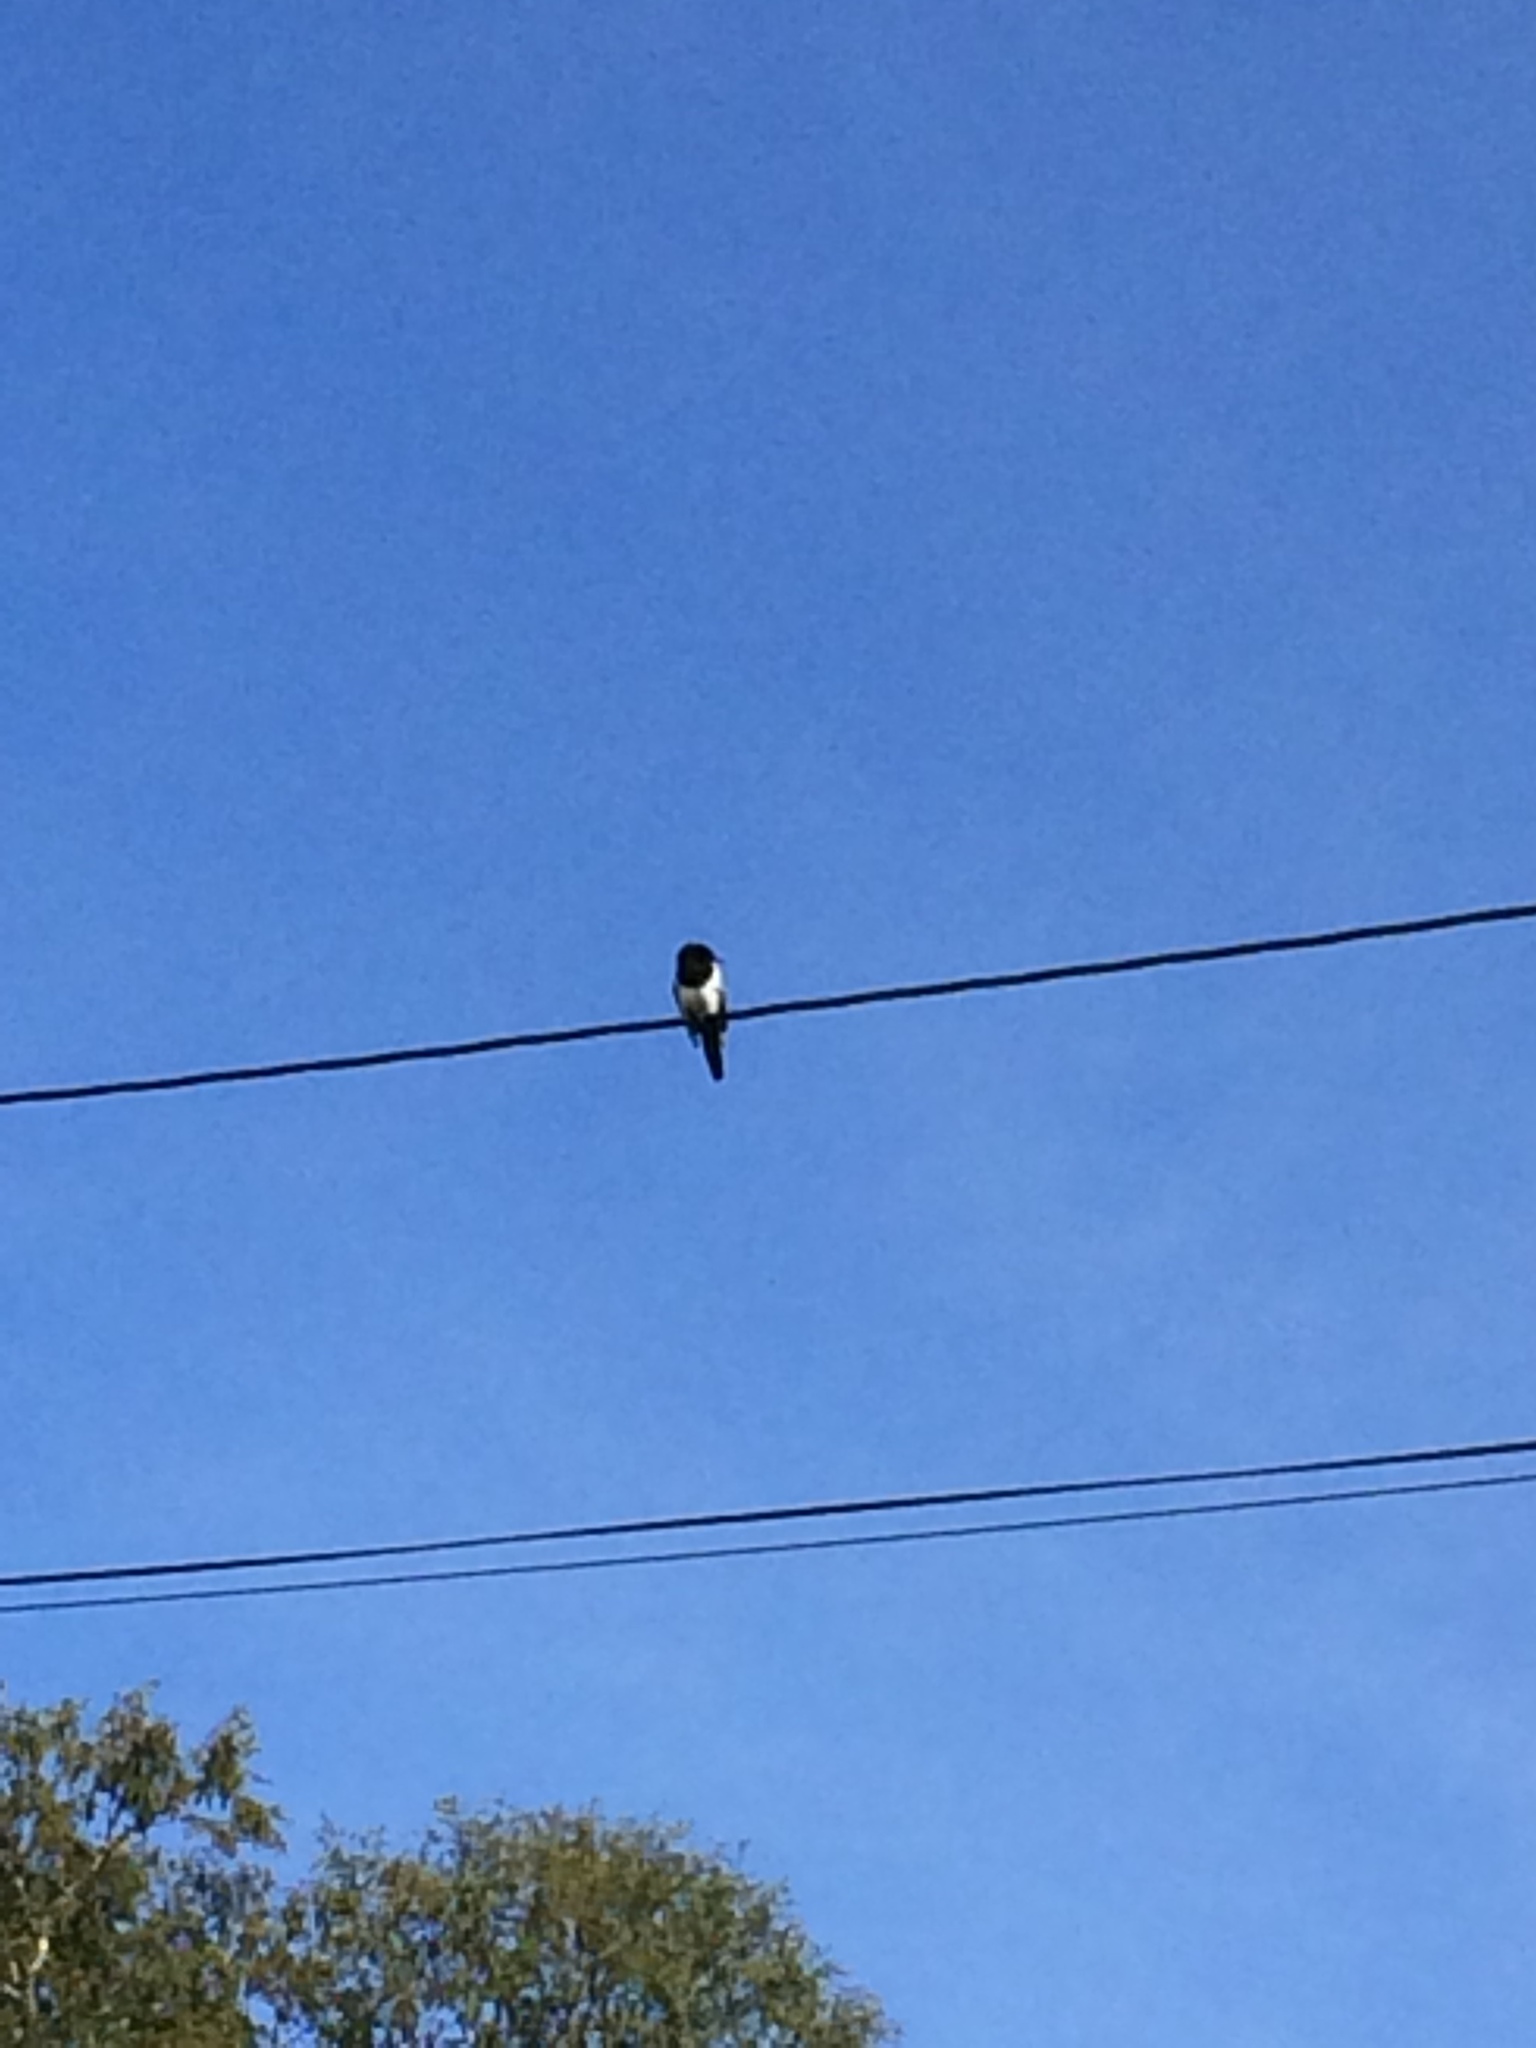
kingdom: Animalia
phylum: Chordata
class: Aves
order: Passeriformes
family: Corvidae
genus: Pica
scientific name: Pica pica
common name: Eurasian magpie
